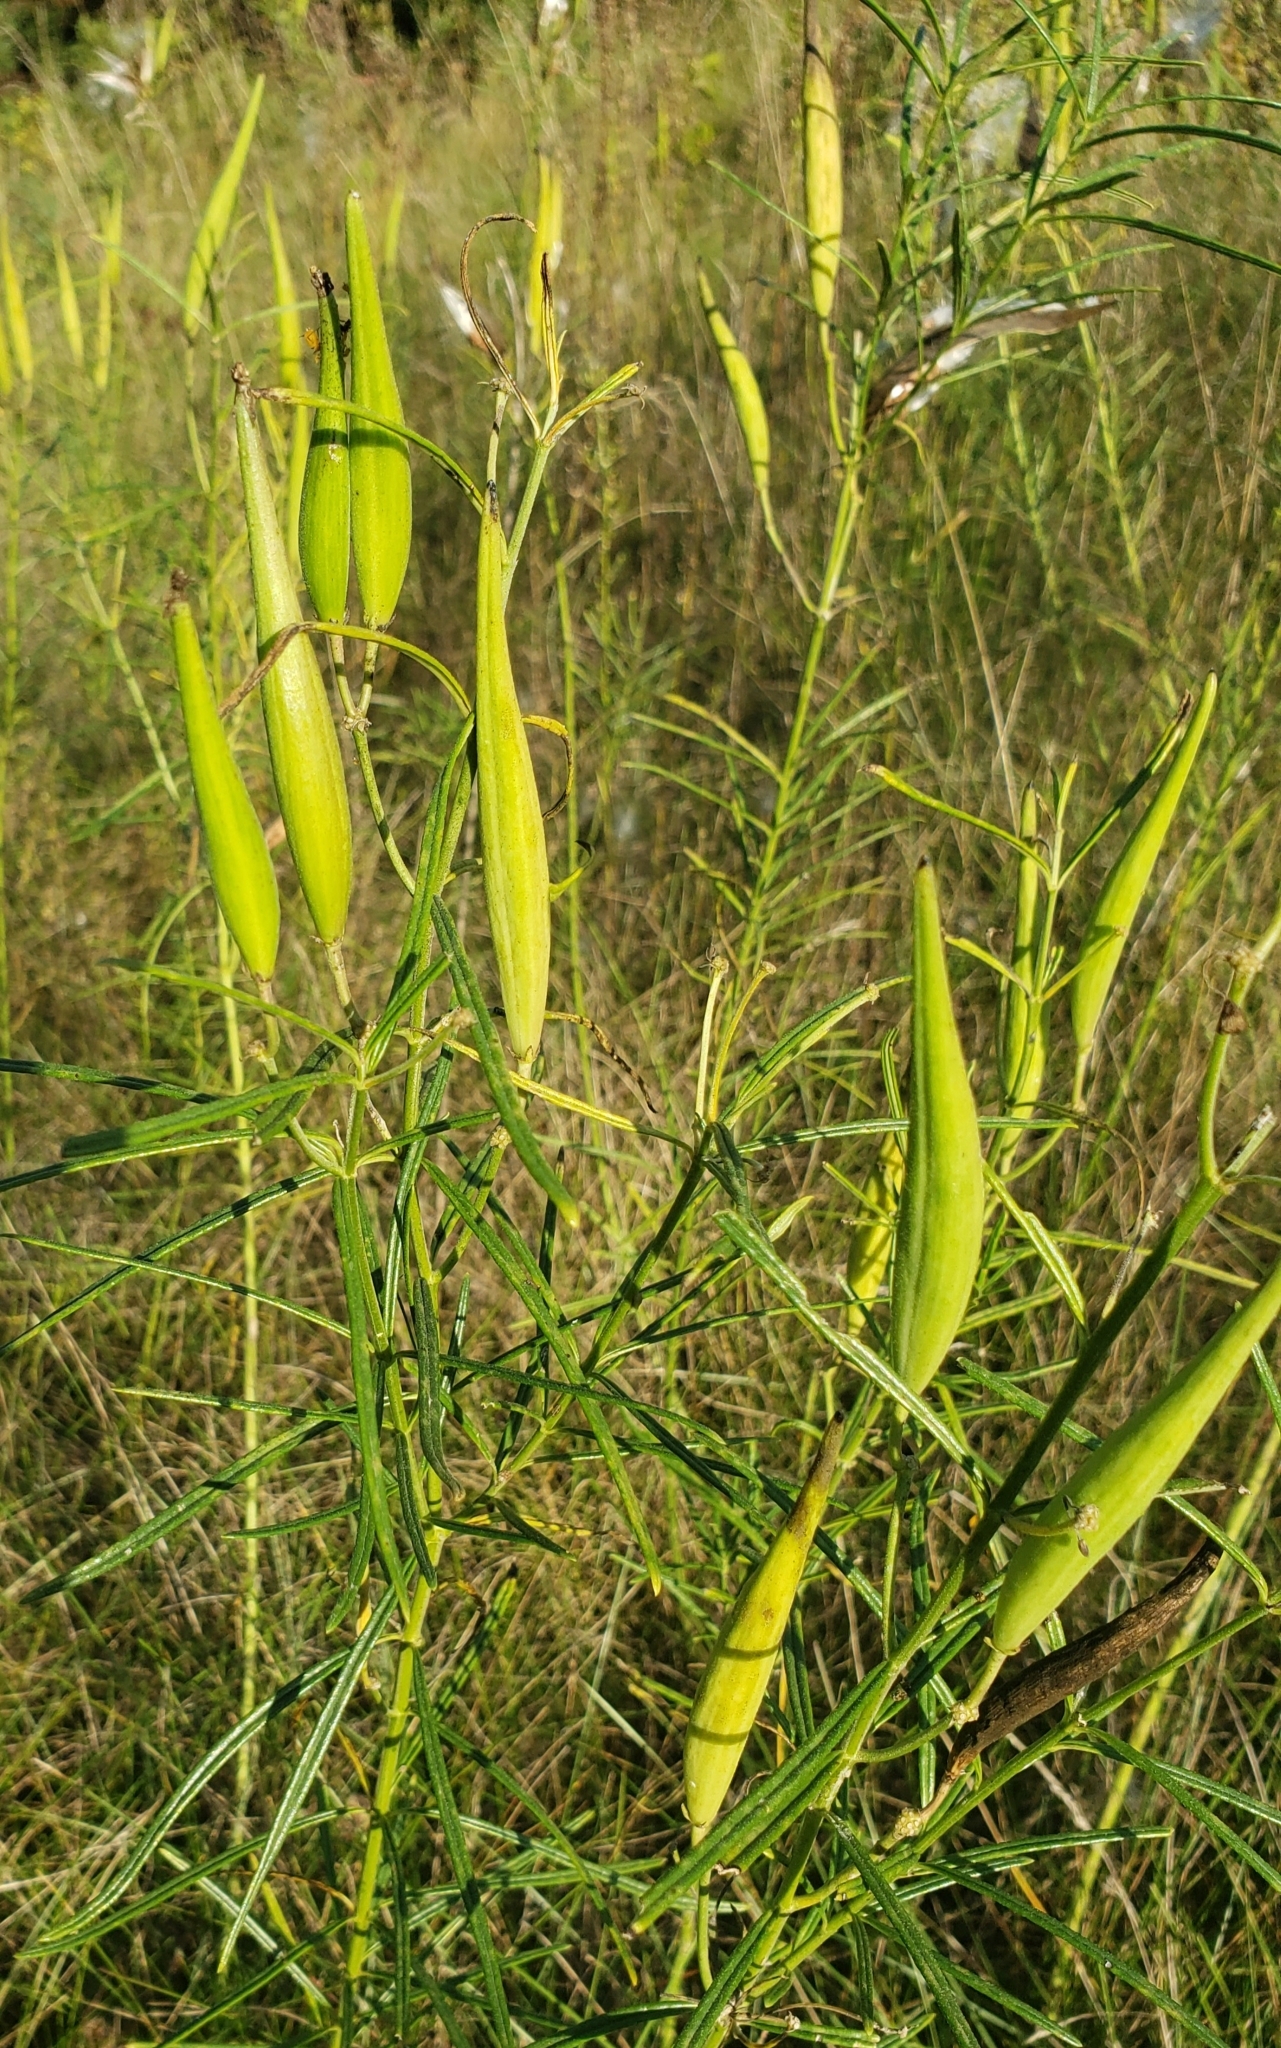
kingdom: Plantae
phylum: Tracheophyta
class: Magnoliopsida
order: Gentianales
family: Apocynaceae
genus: Asclepias
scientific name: Asclepias verticillata
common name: Eastern whorled milkweed
